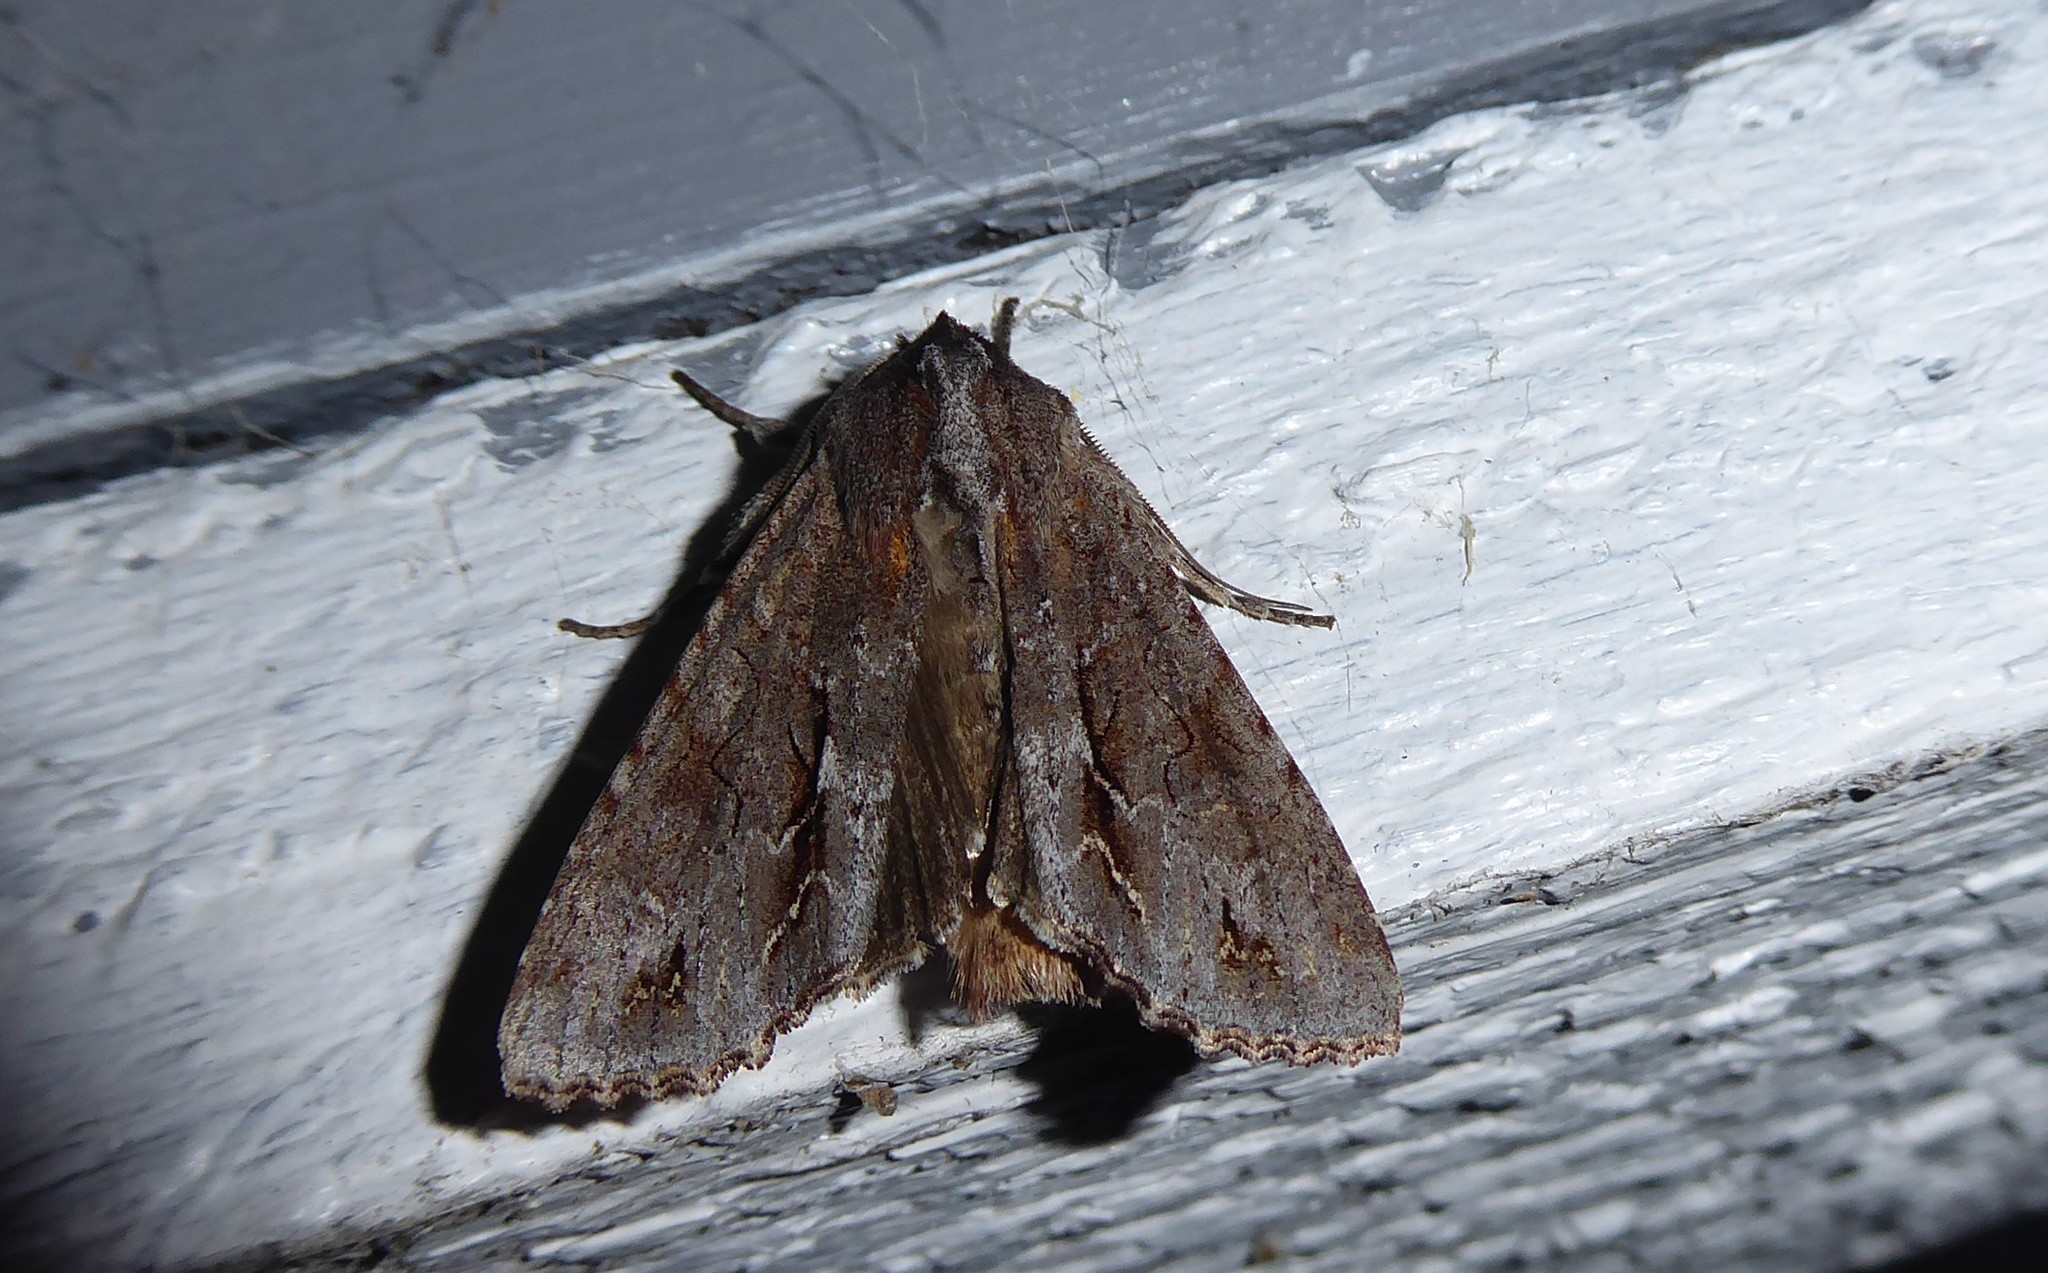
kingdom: Animalia
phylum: Arthropoda
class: Insecta
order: Lepidoptera
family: Noctuidae
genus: Ichneutica
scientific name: Ichneutica
